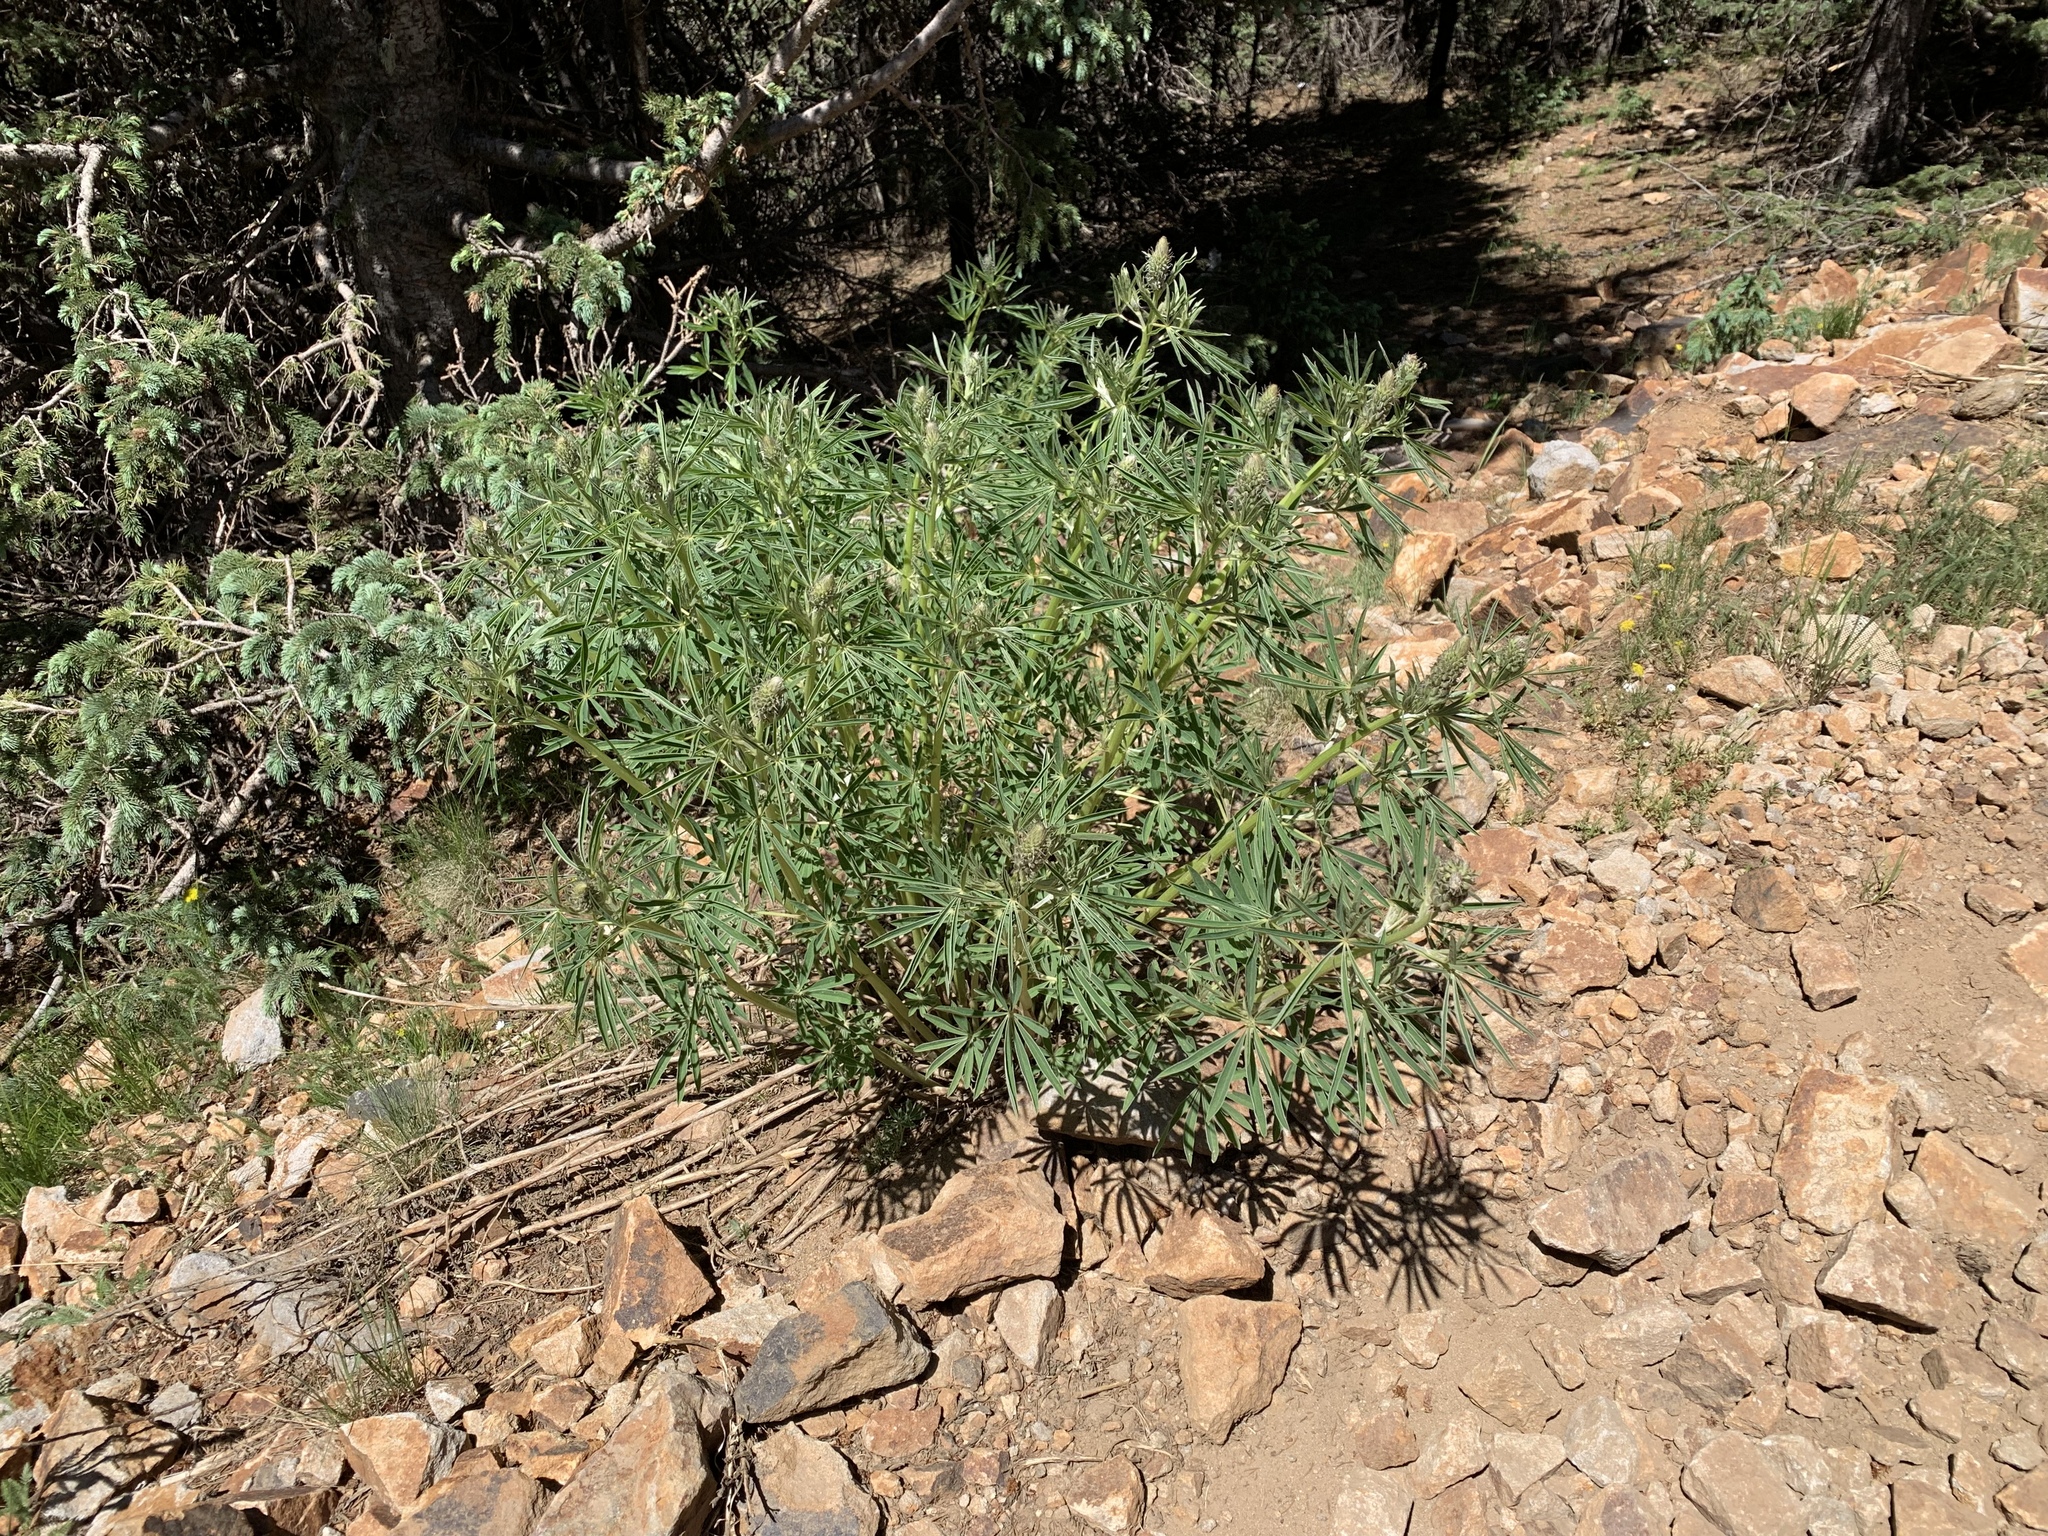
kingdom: Plantae
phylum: Tracheophyta
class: Magnoliopsida
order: Fabales
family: Fabaceae
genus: Lupinus
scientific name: Lupinus sierrae-blancae
